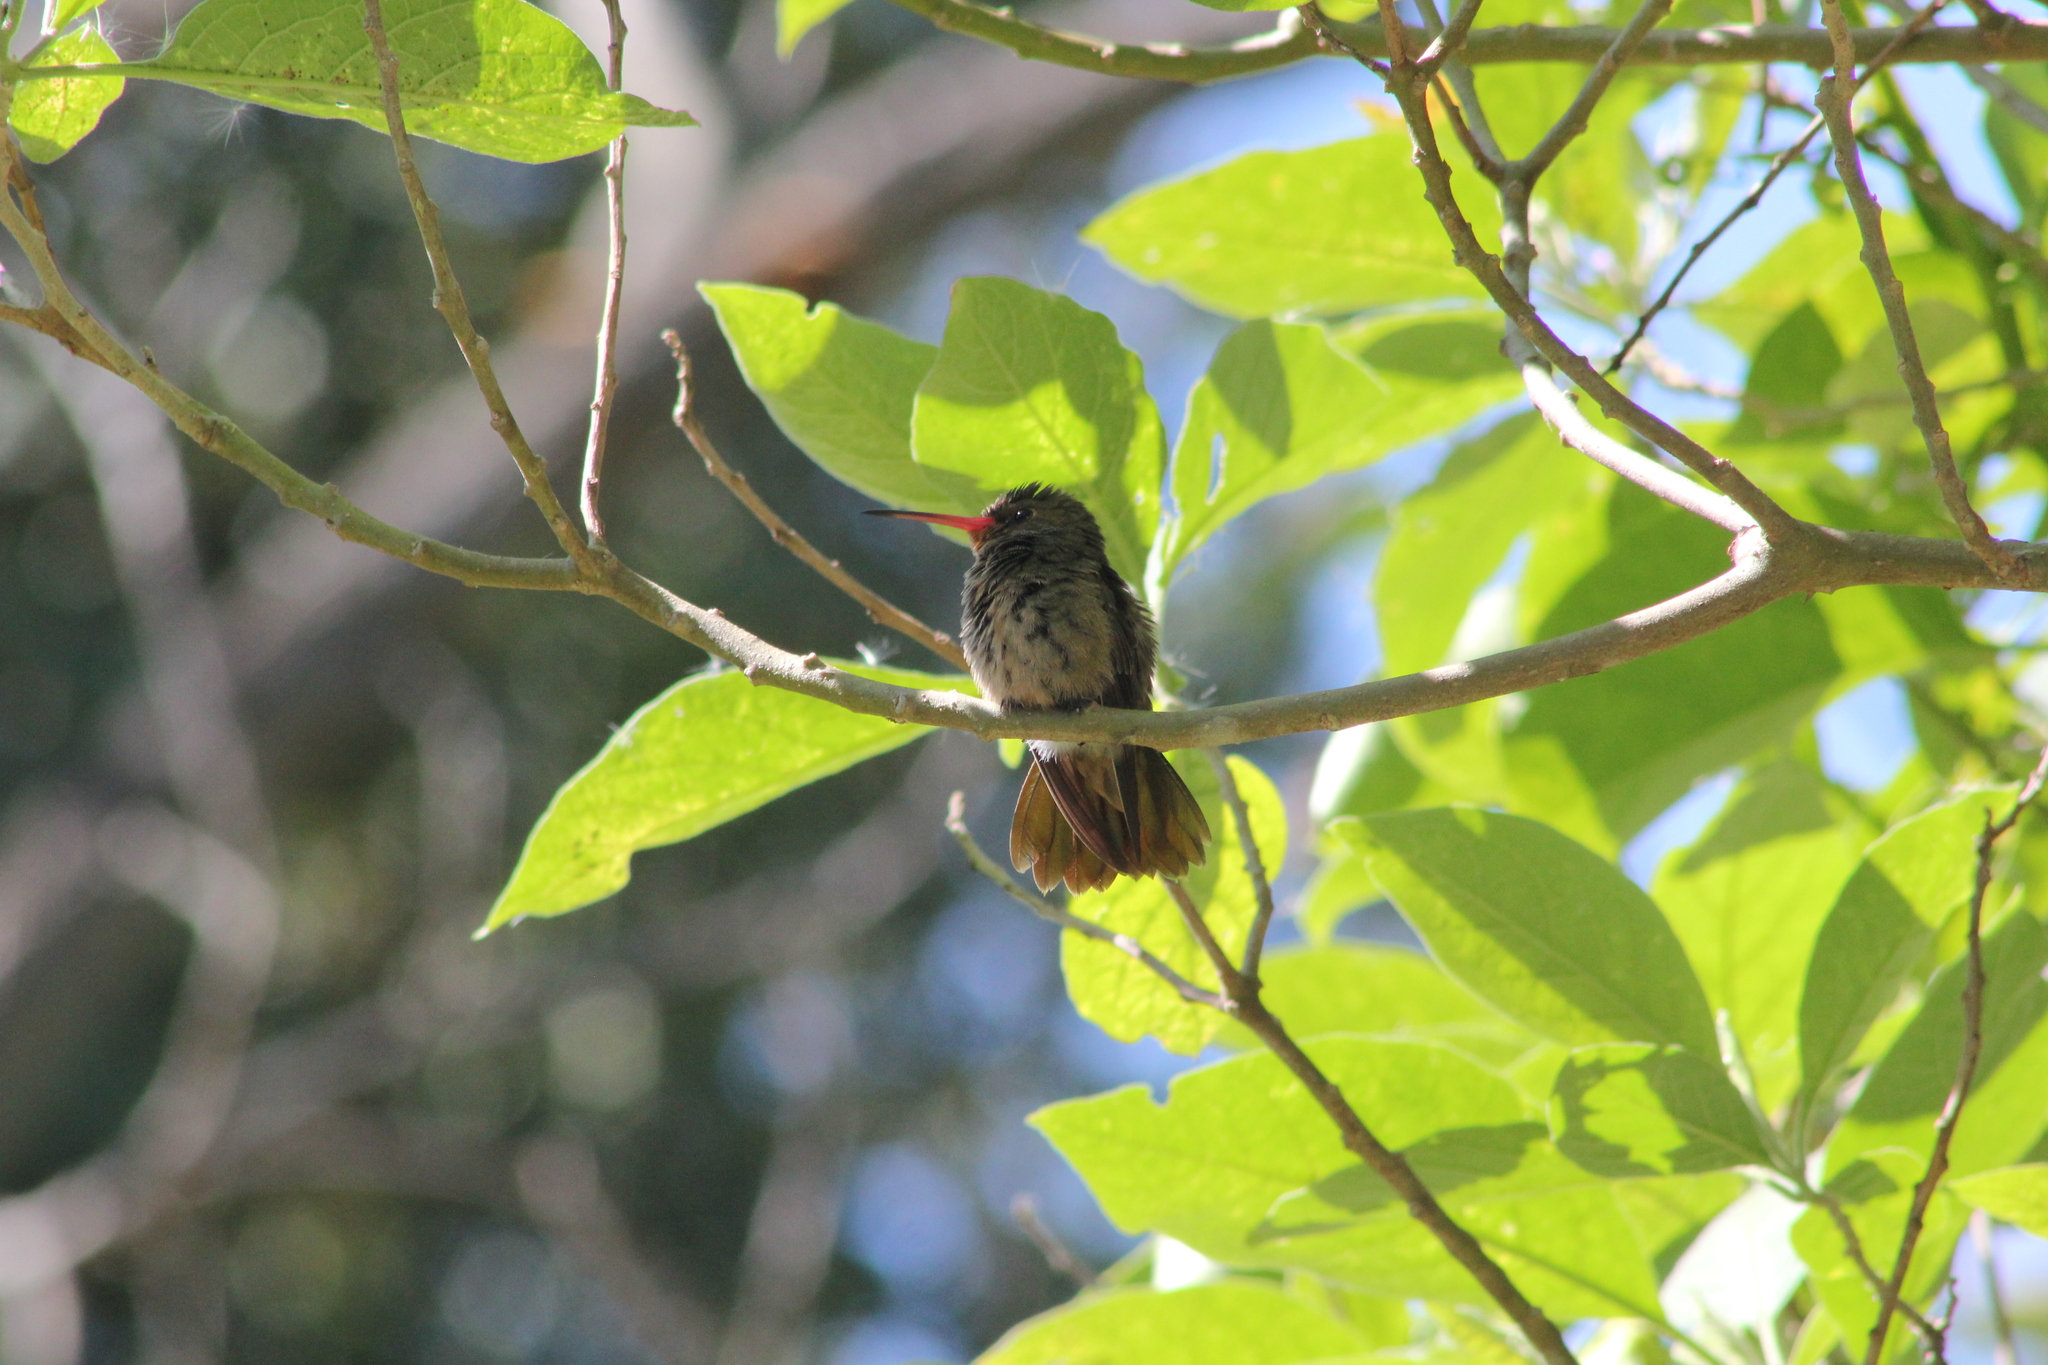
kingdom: Animalia
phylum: Chordata
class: Aves
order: Apodiformes
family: Trochilidae
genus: Hylocharis
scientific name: Hylocharis chrysura
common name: Gilded sapphire
